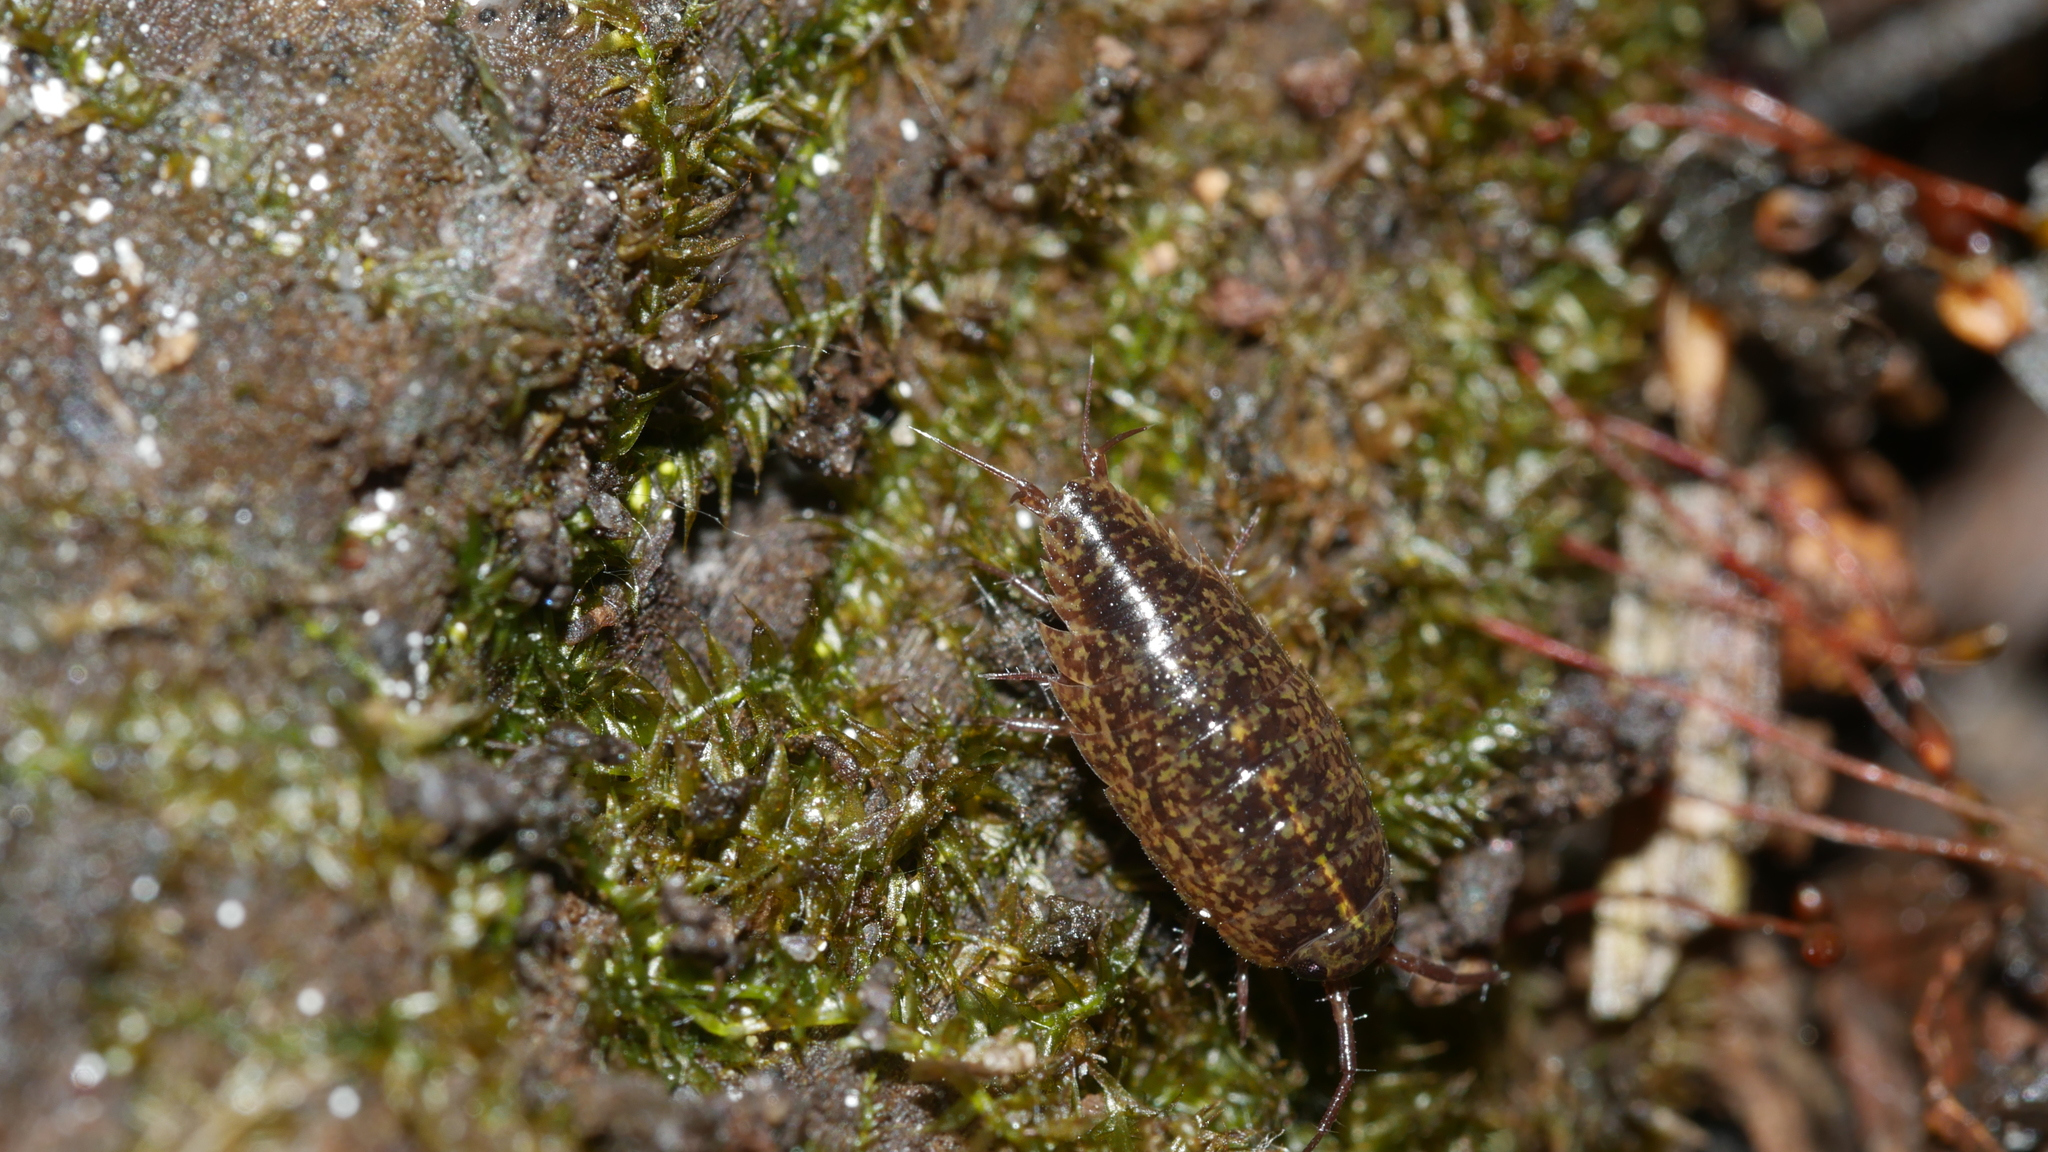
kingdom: Animalia
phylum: Arthropoda
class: Malacostraca
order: Isopoda
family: Ligiidae
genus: Ligidium
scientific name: Ligidium elrodii
